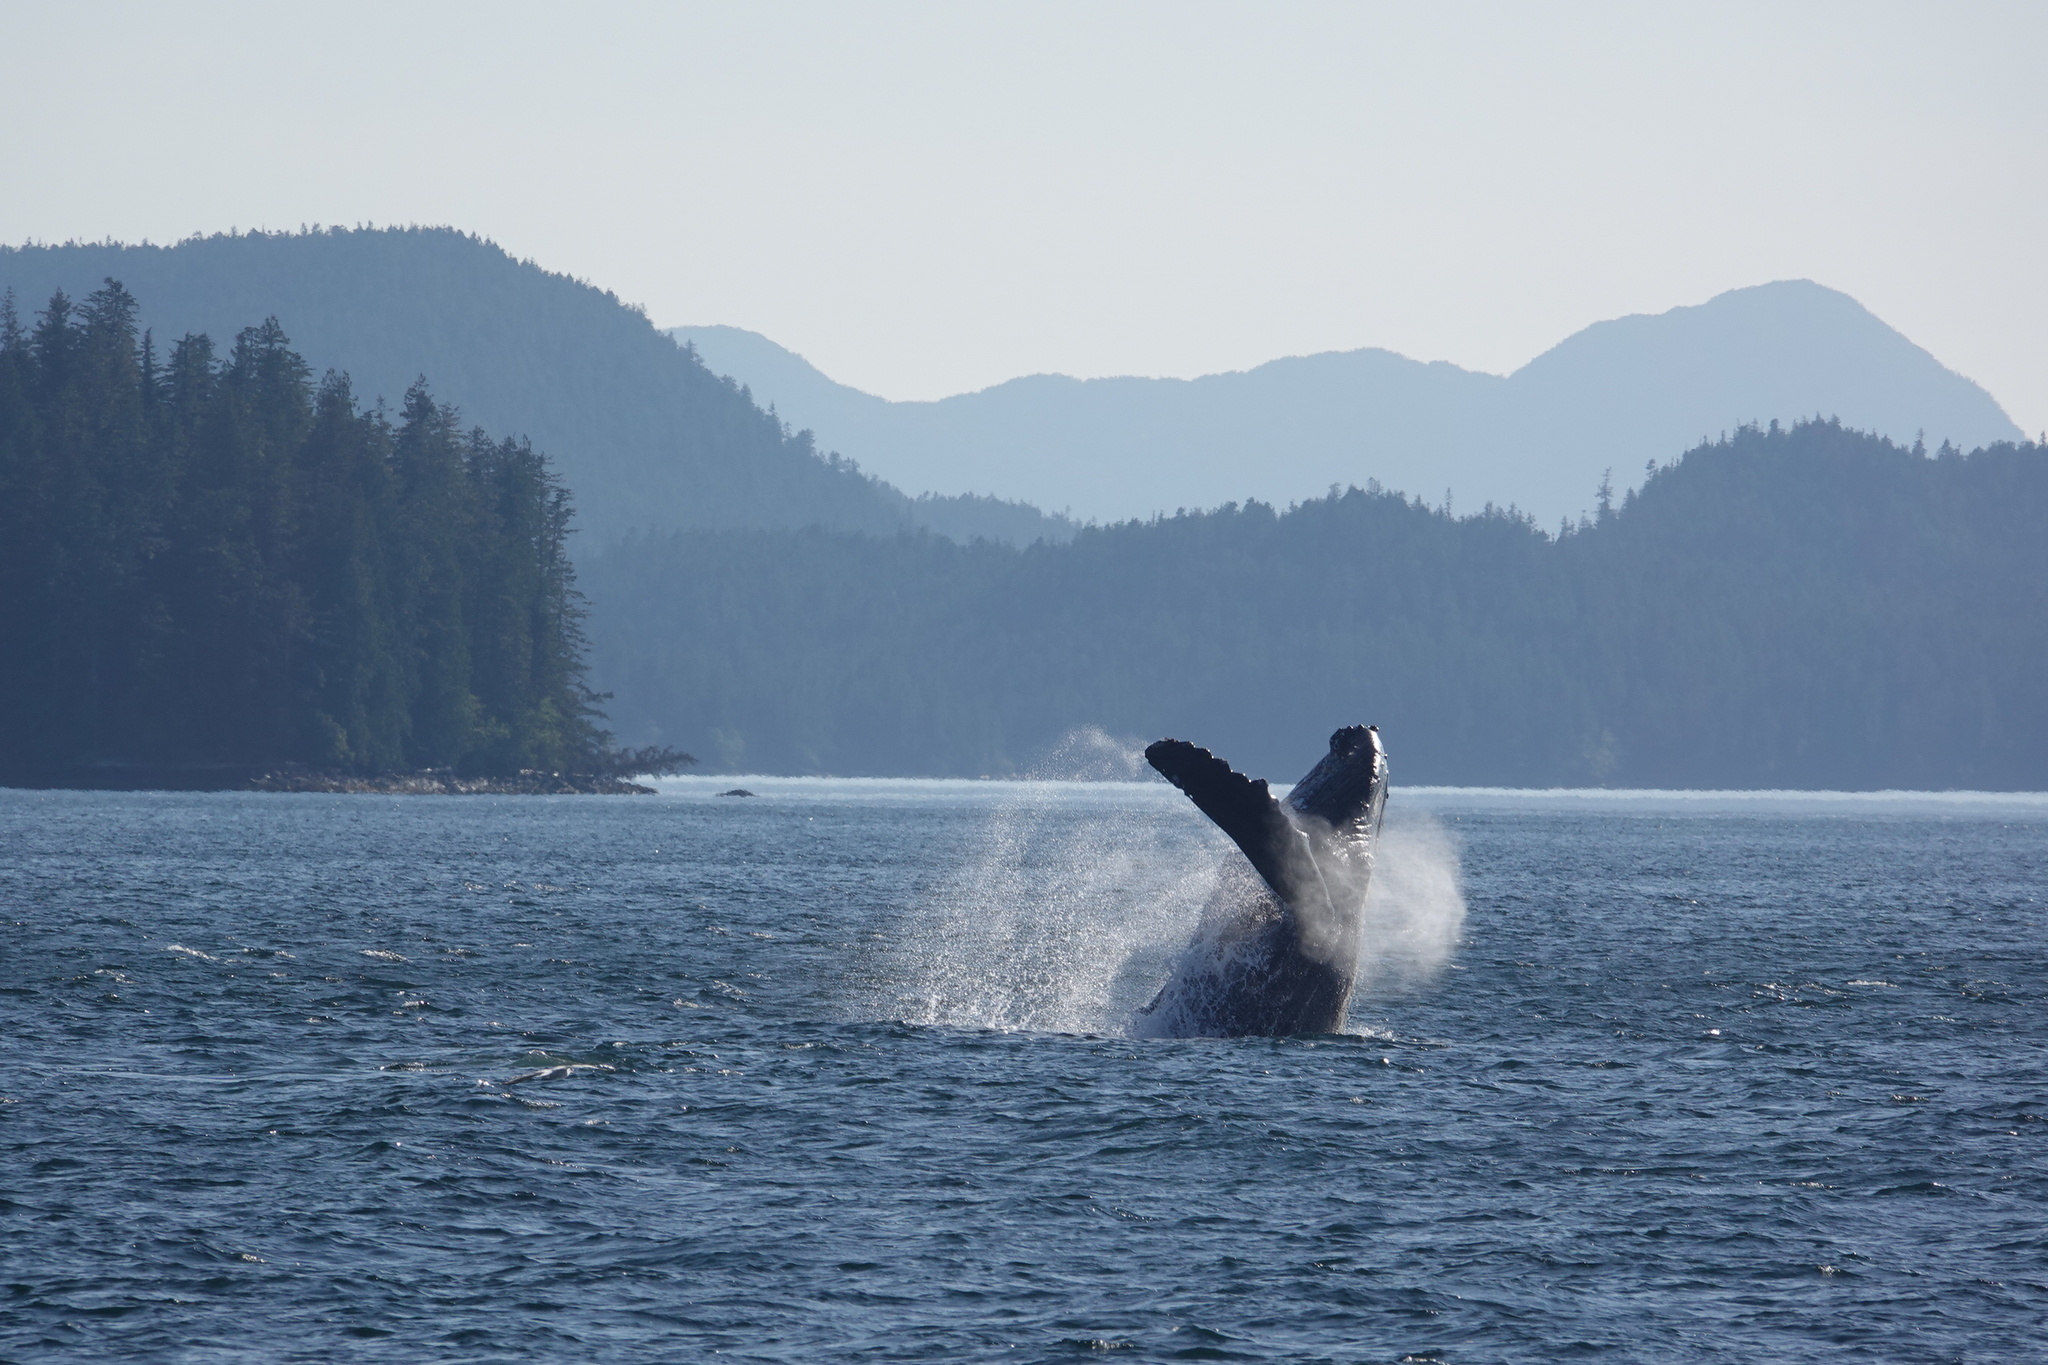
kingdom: Animalia
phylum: Chordata
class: Mammalia
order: Cetacea
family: Balaenopteridae
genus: Megaptera
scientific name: Megaptera novaeangliae
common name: Humpback whale
